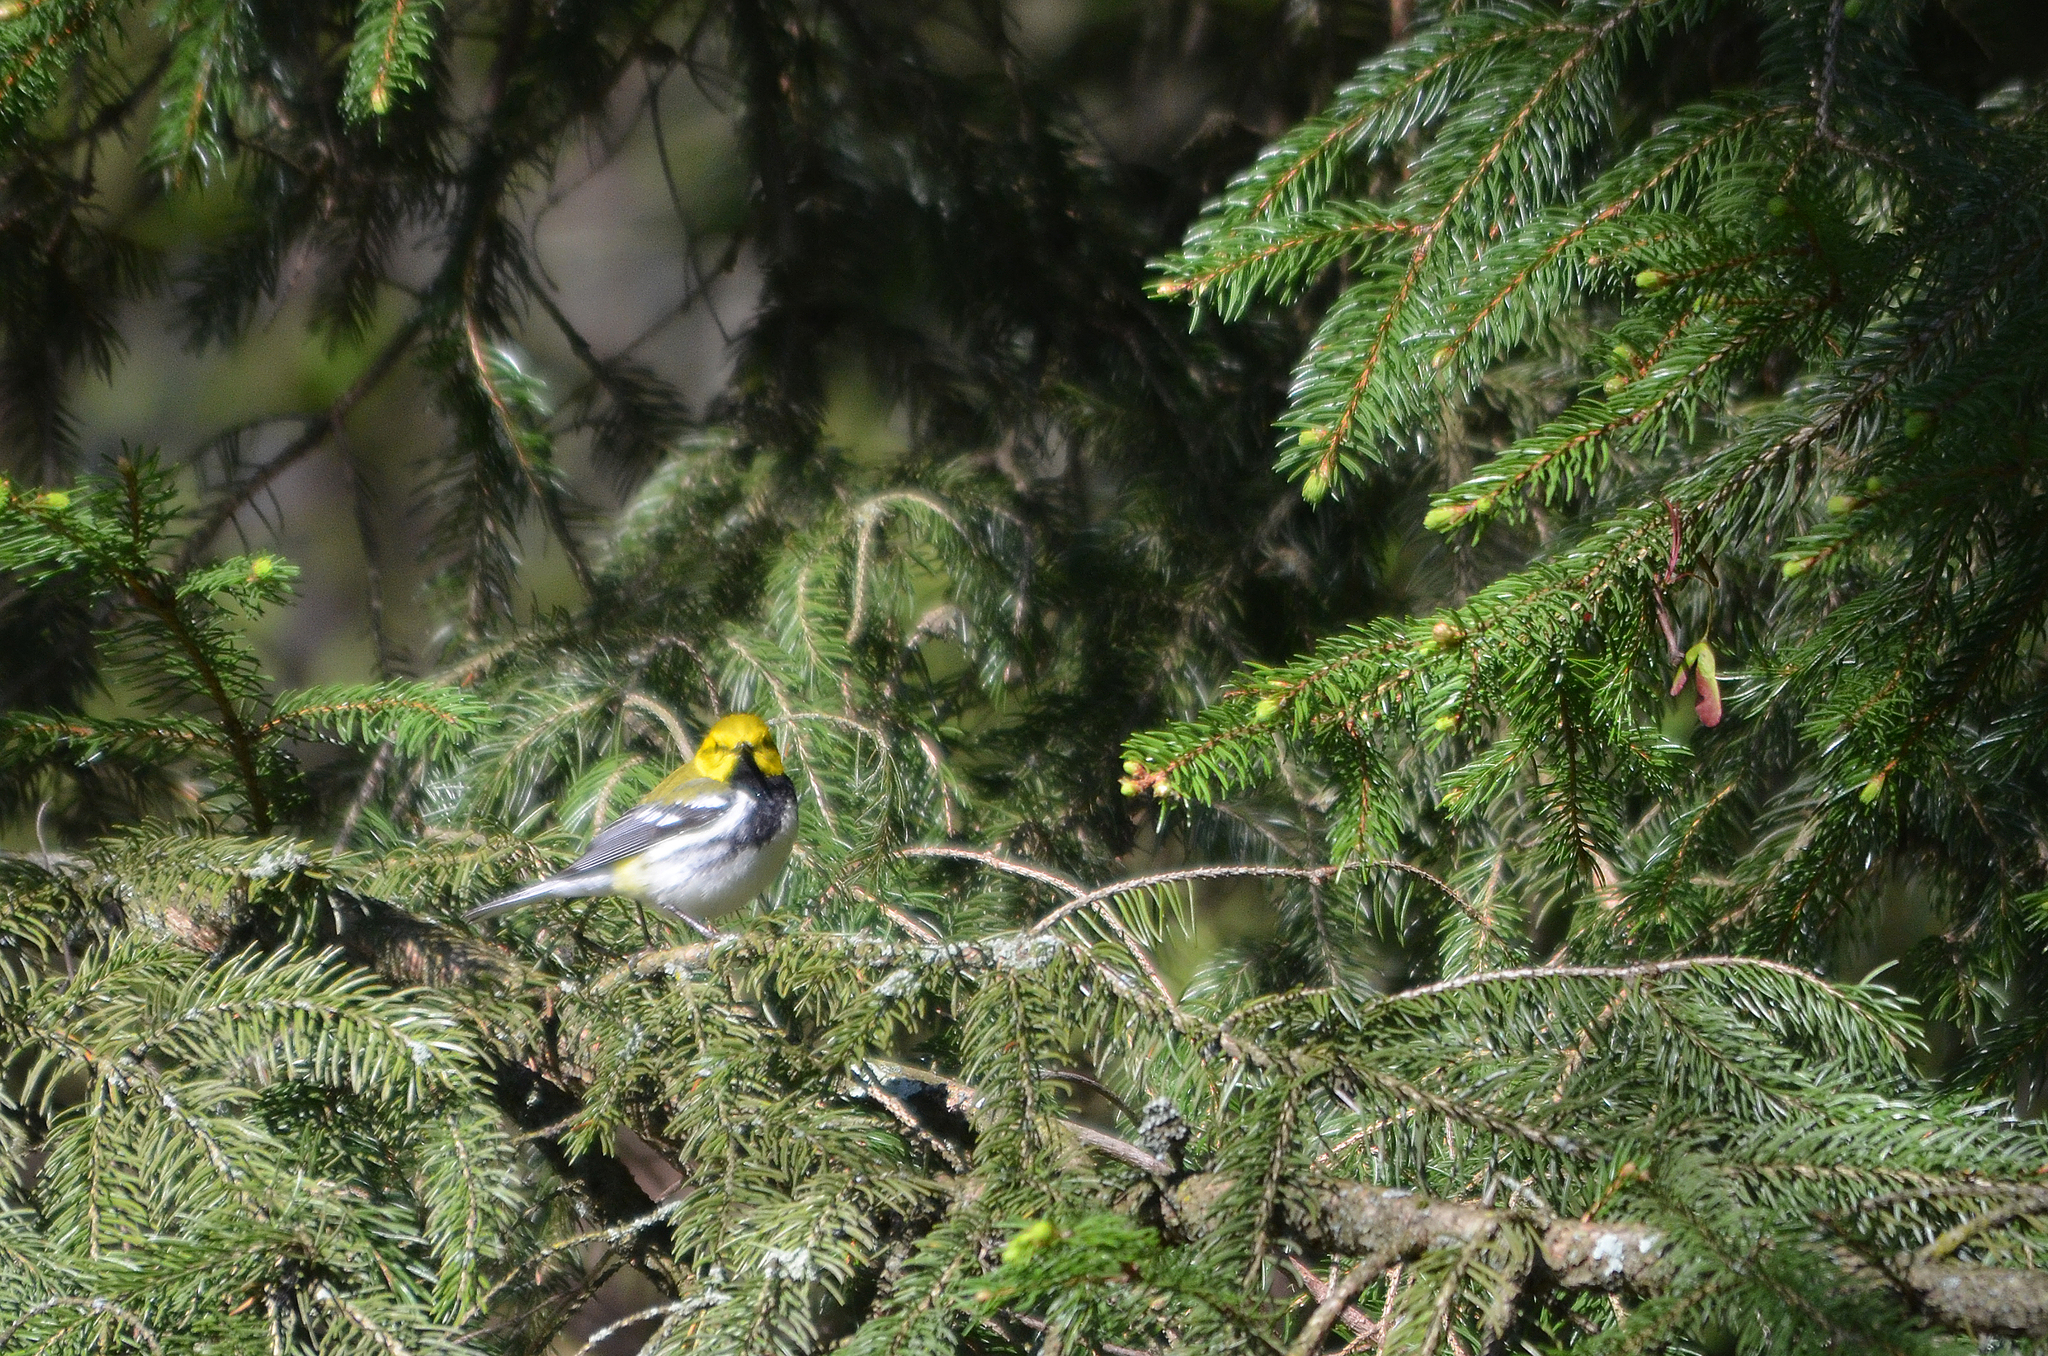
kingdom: Animalia
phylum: Chordata
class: Aves
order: Passeriformes
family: Parulidae
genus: Setophaga
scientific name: Setophaga virens
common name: Black-throated green warbler
